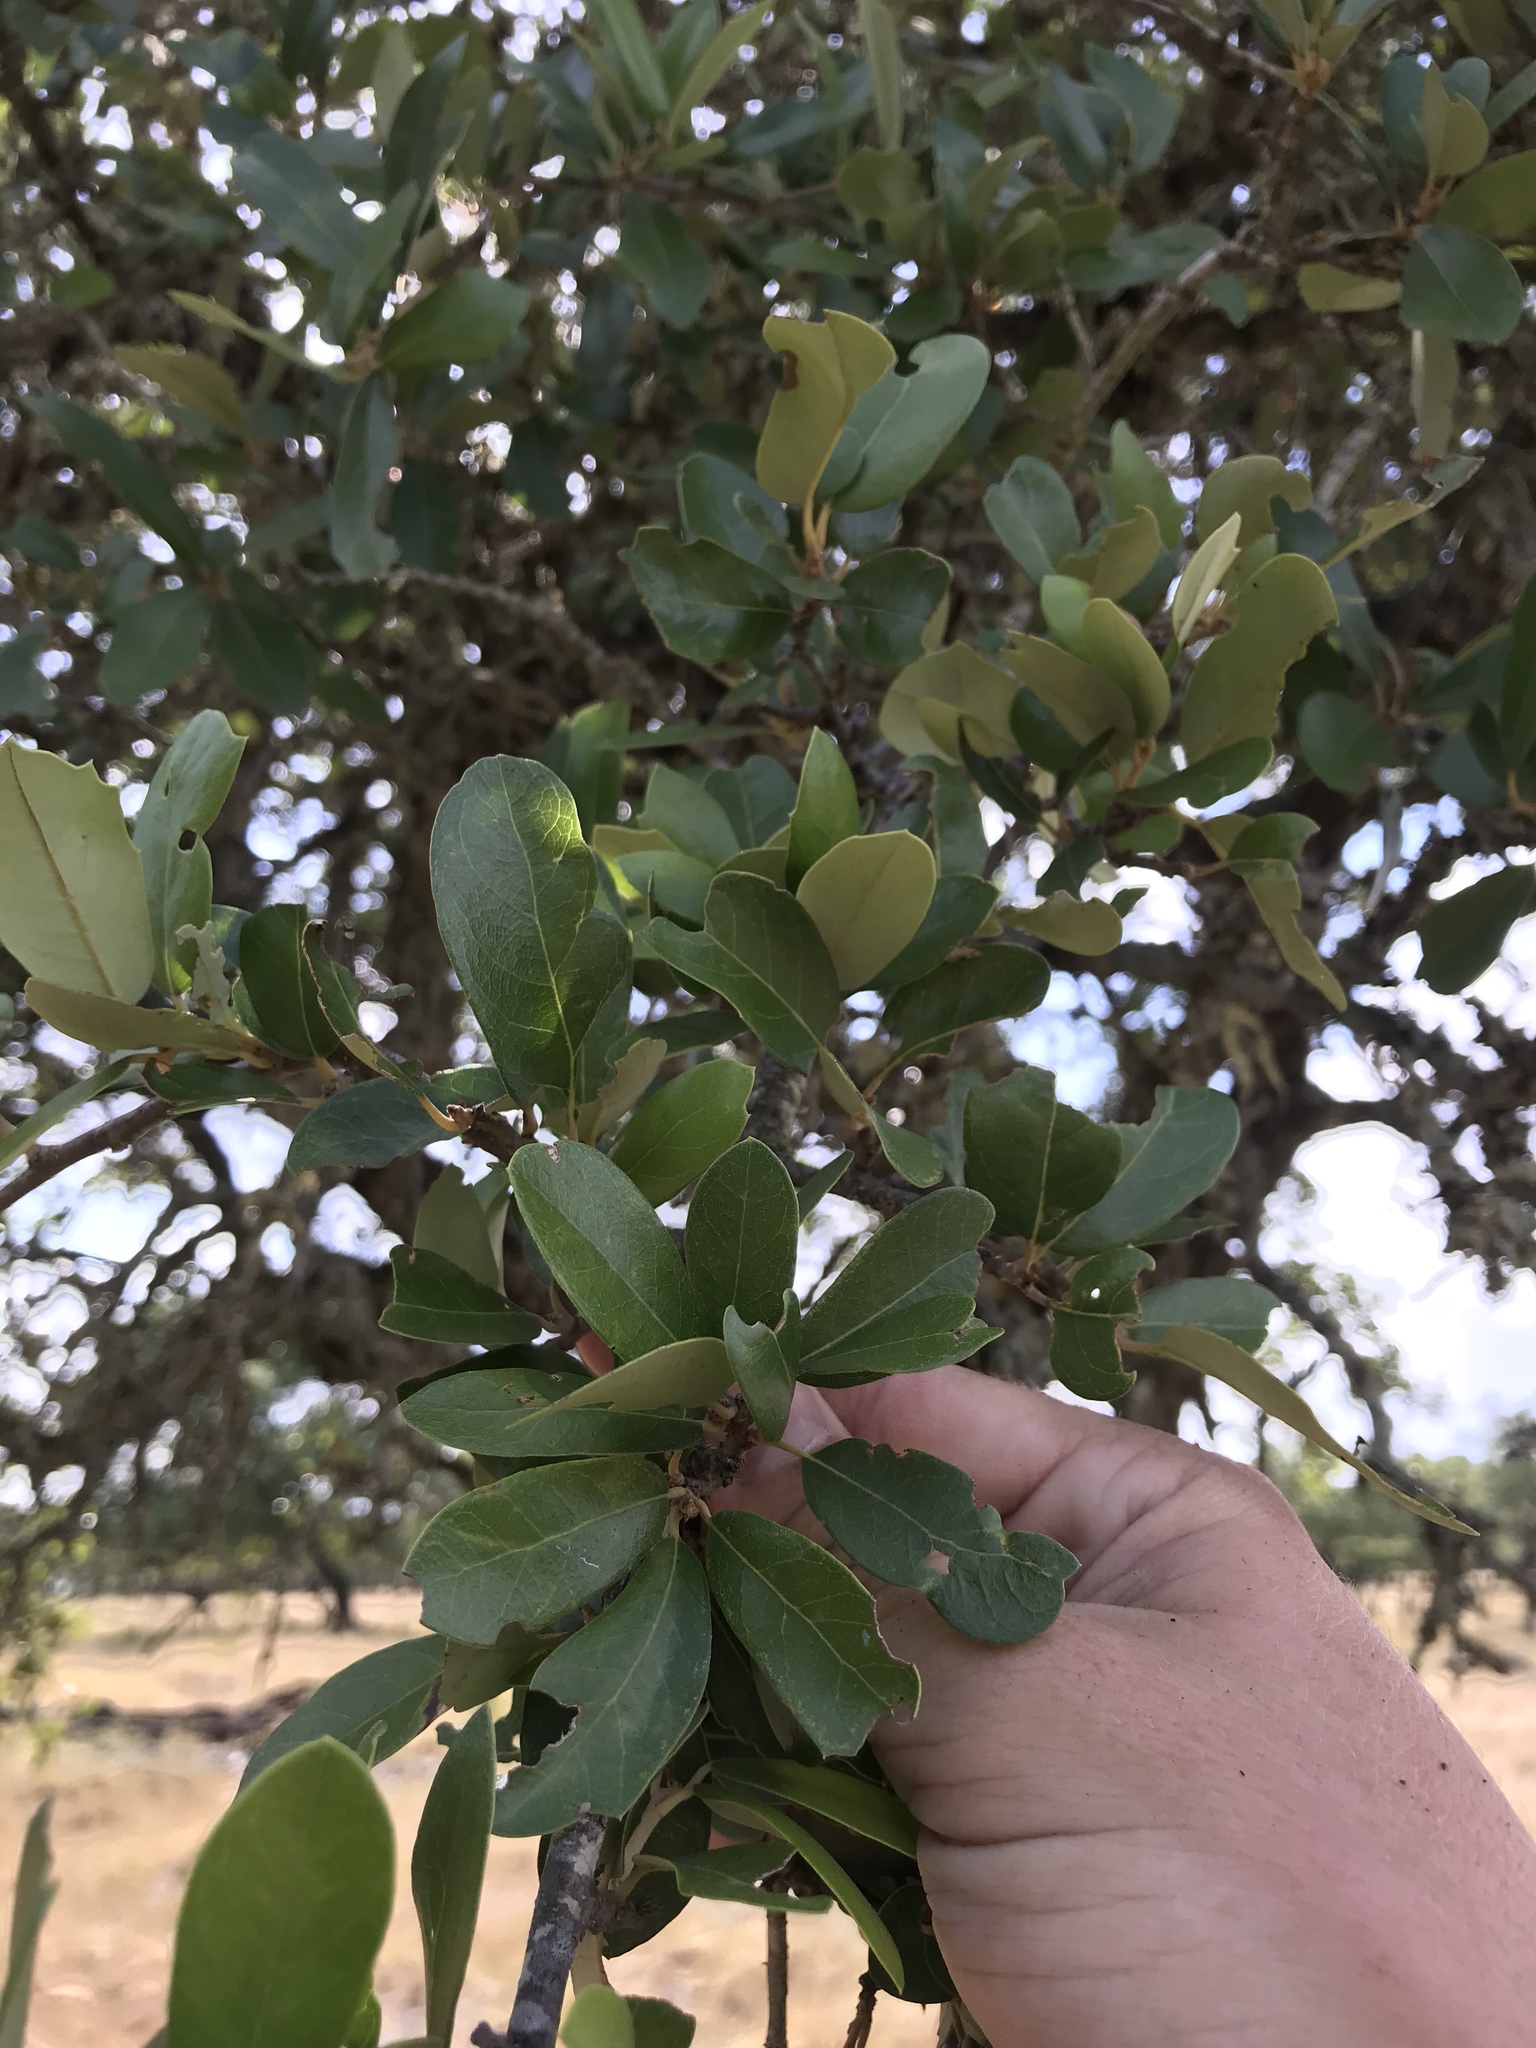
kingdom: Plantae
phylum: Tracheophyta
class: Magnoliopsida
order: Fagales
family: Fagaceae
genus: Quercus
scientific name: Quercus fusiformis
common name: Texas live oak
